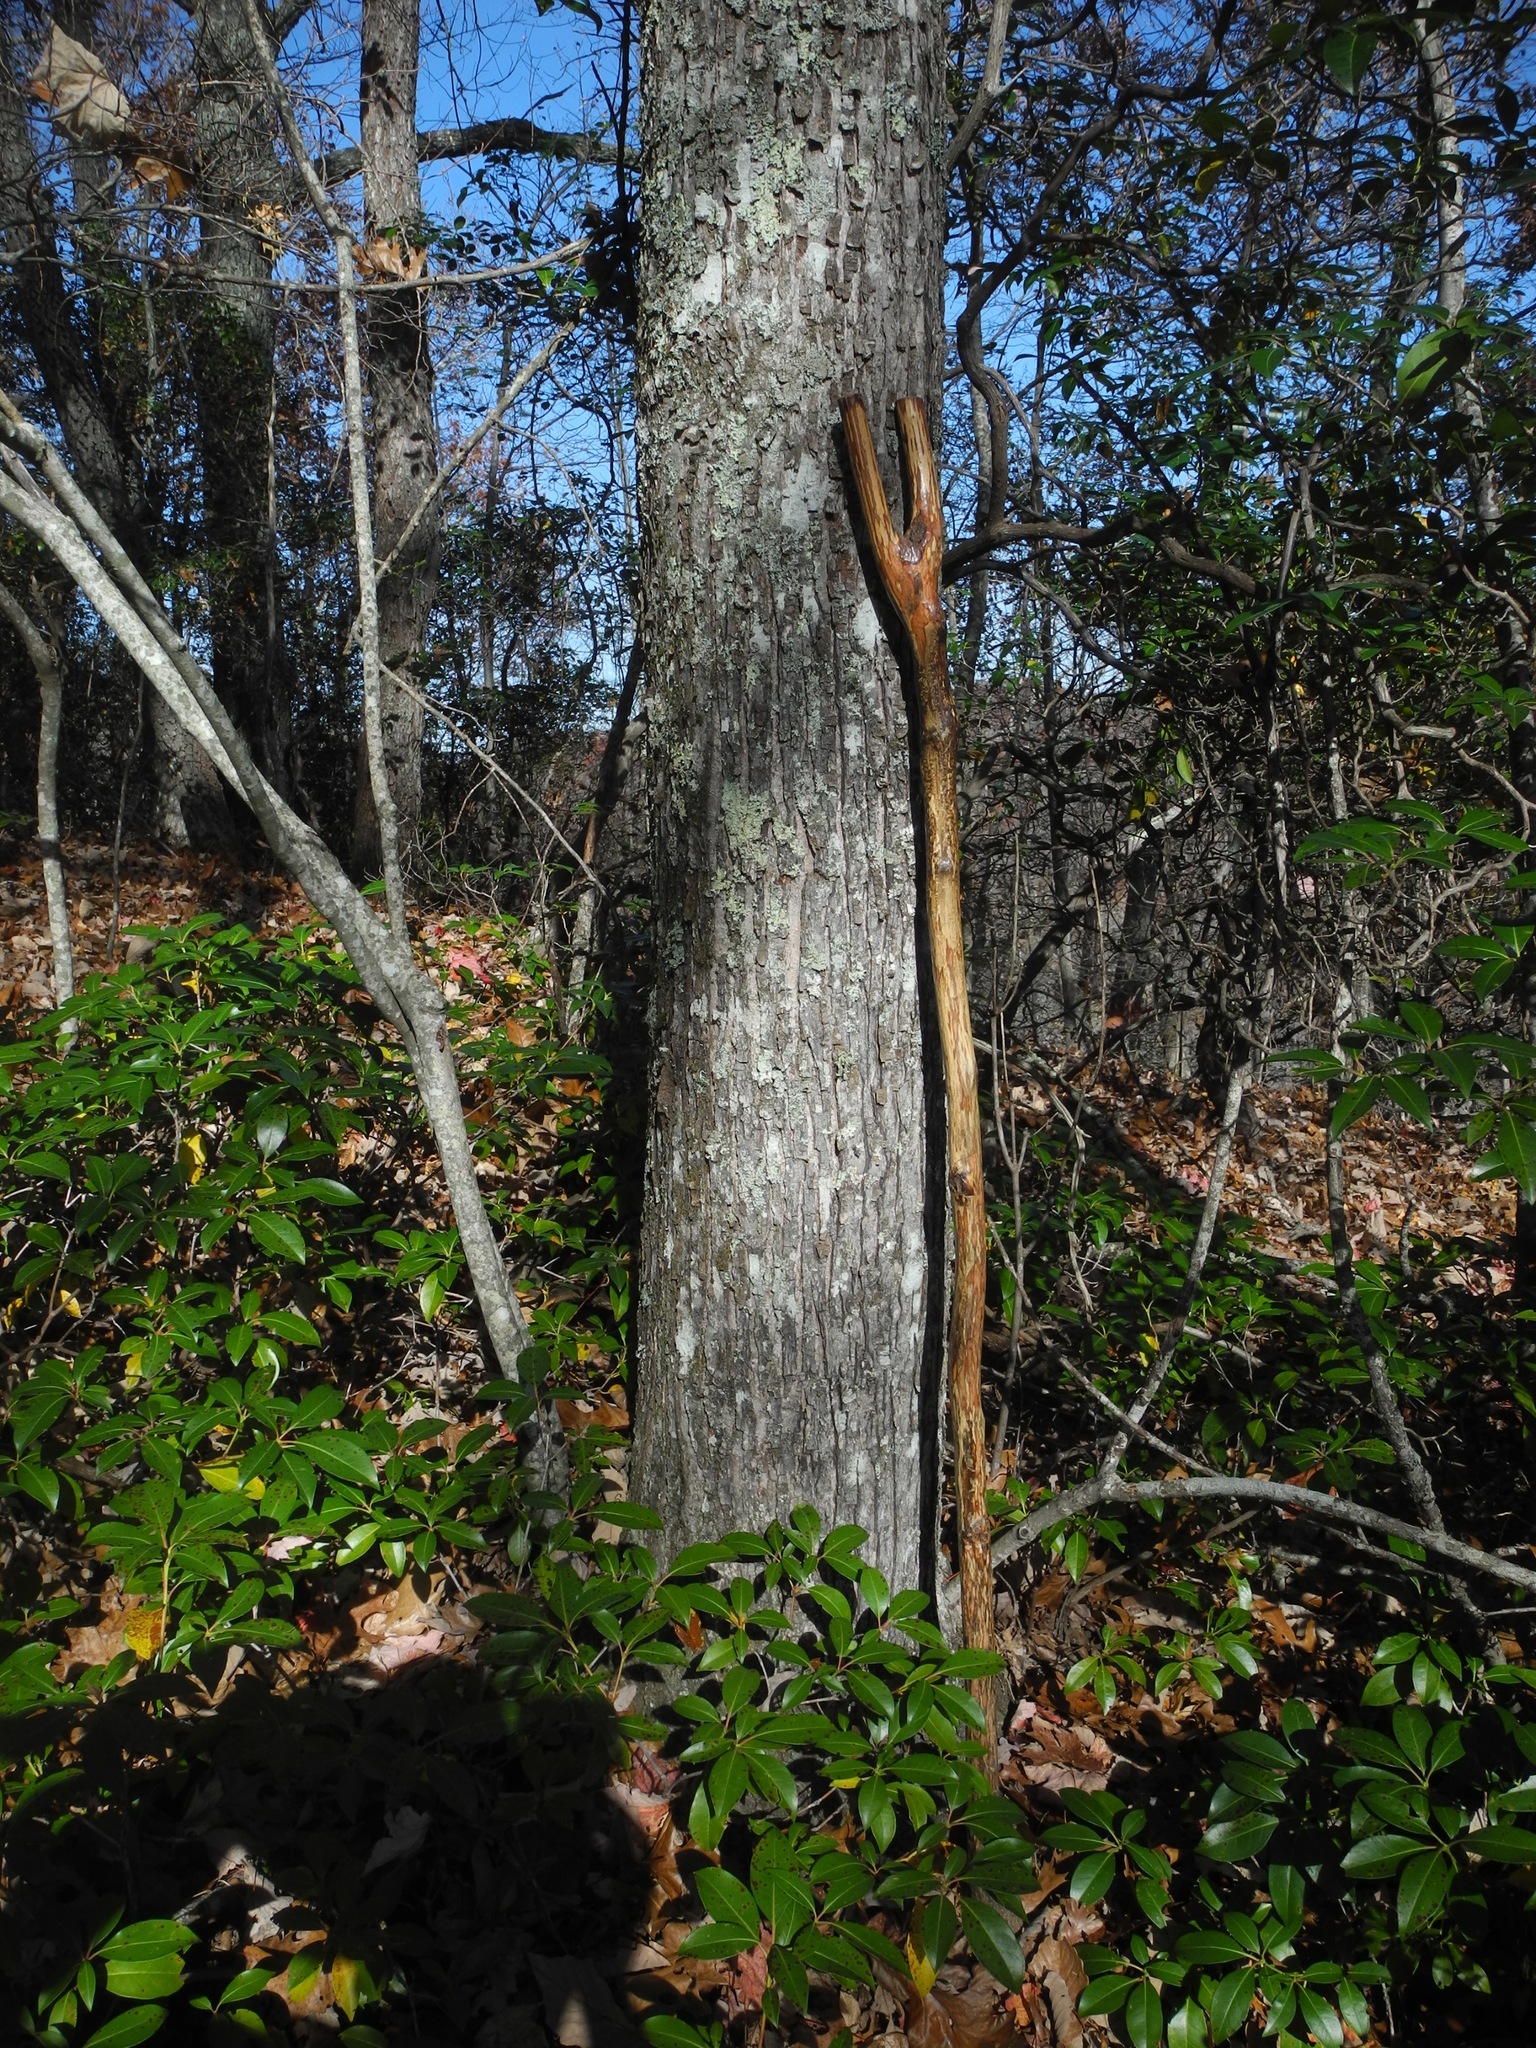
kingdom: Plantae
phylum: Tracheophyta
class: Magnoliopsida
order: Sapindales
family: Sapindaceae
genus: Acer
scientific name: Acer rubrum
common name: Red maple
